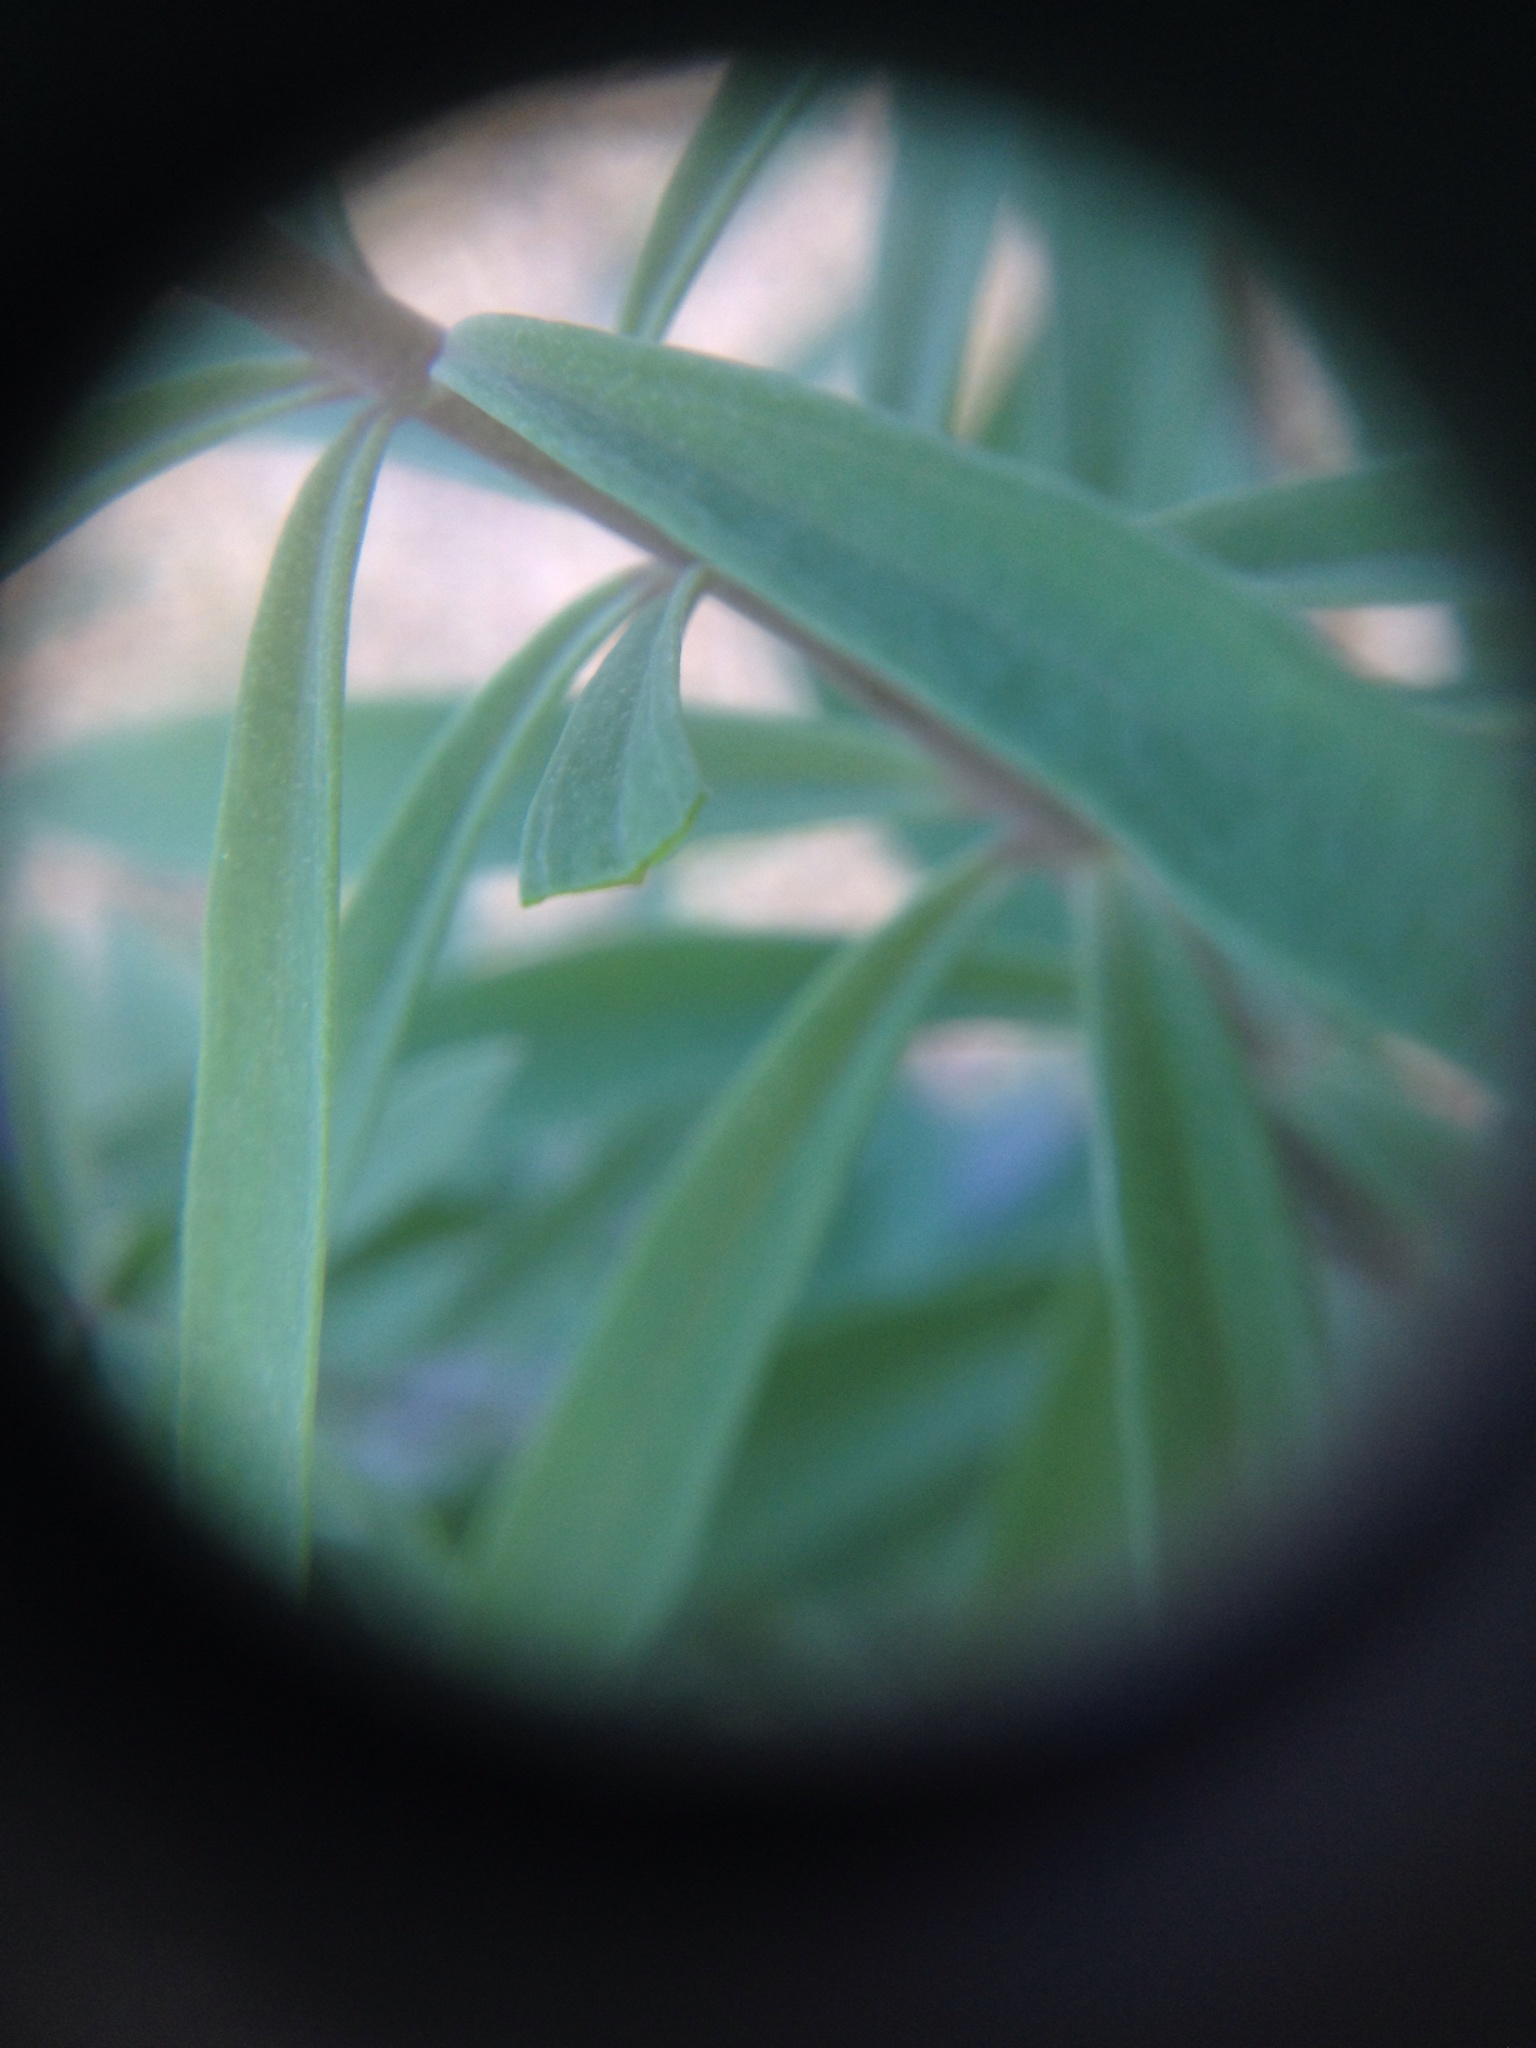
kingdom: Plantae
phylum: Tracheophyta
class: Magnoliopsida
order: Lamiales
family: Plantaginaceae
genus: Linaria
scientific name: Linaria purpurea
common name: Purple toadflax
